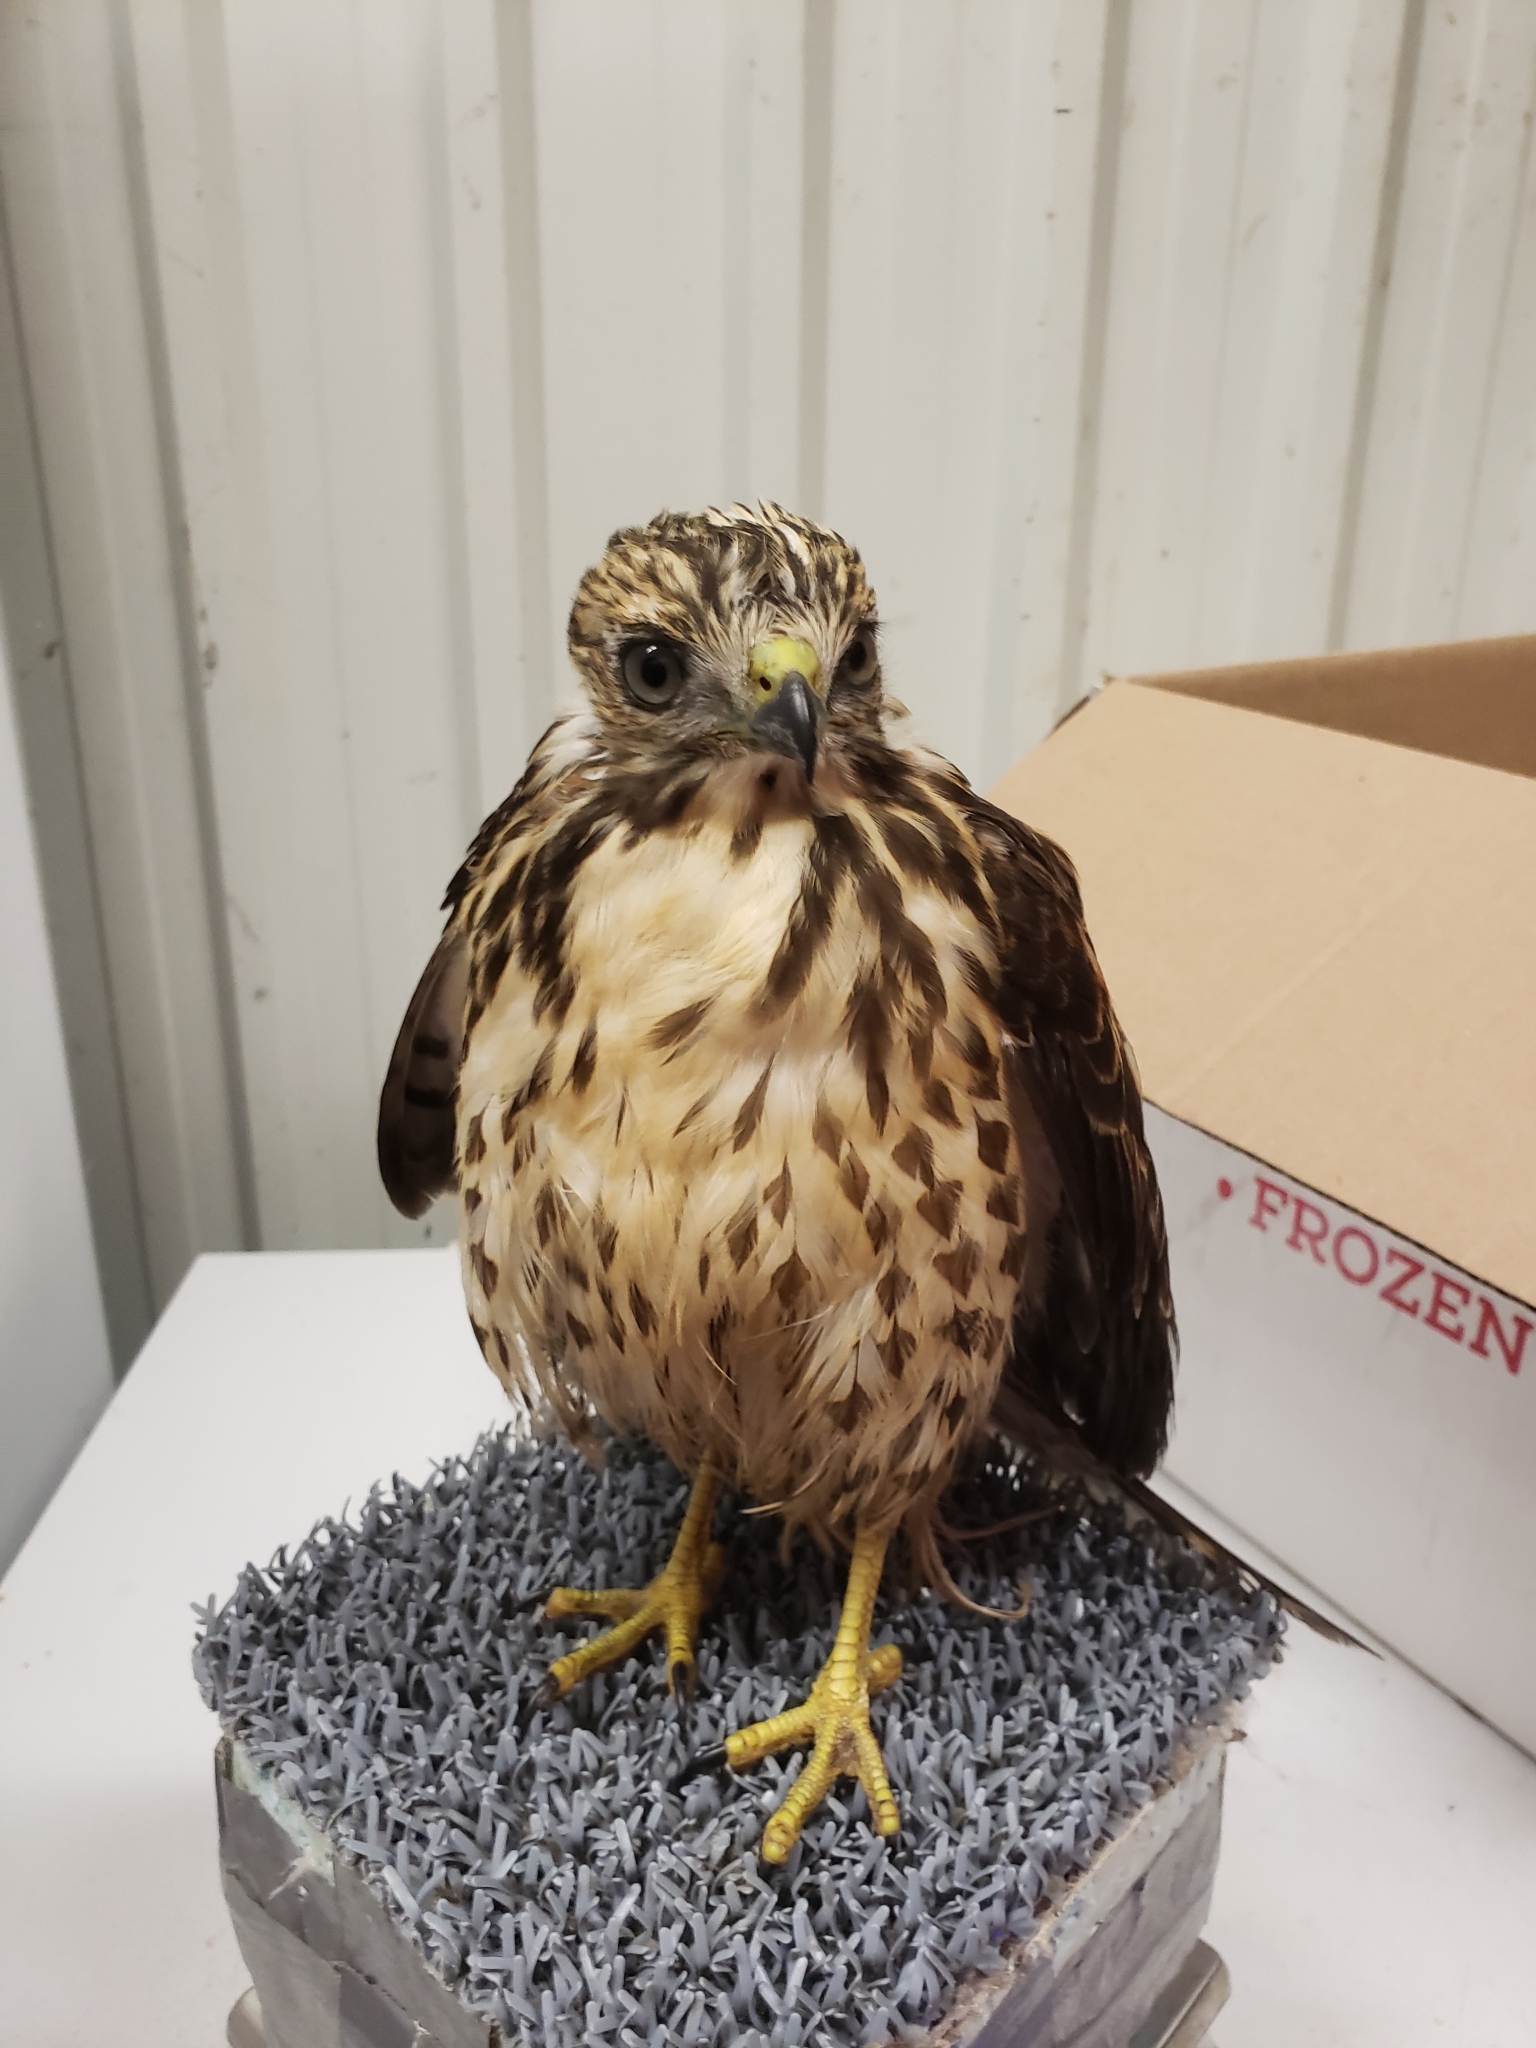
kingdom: Animalia
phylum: Chordata
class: Aves
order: Accipitriformes
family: Accipitridae
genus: Buteo
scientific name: Buteo platypterus
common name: Broad-winged hawk
